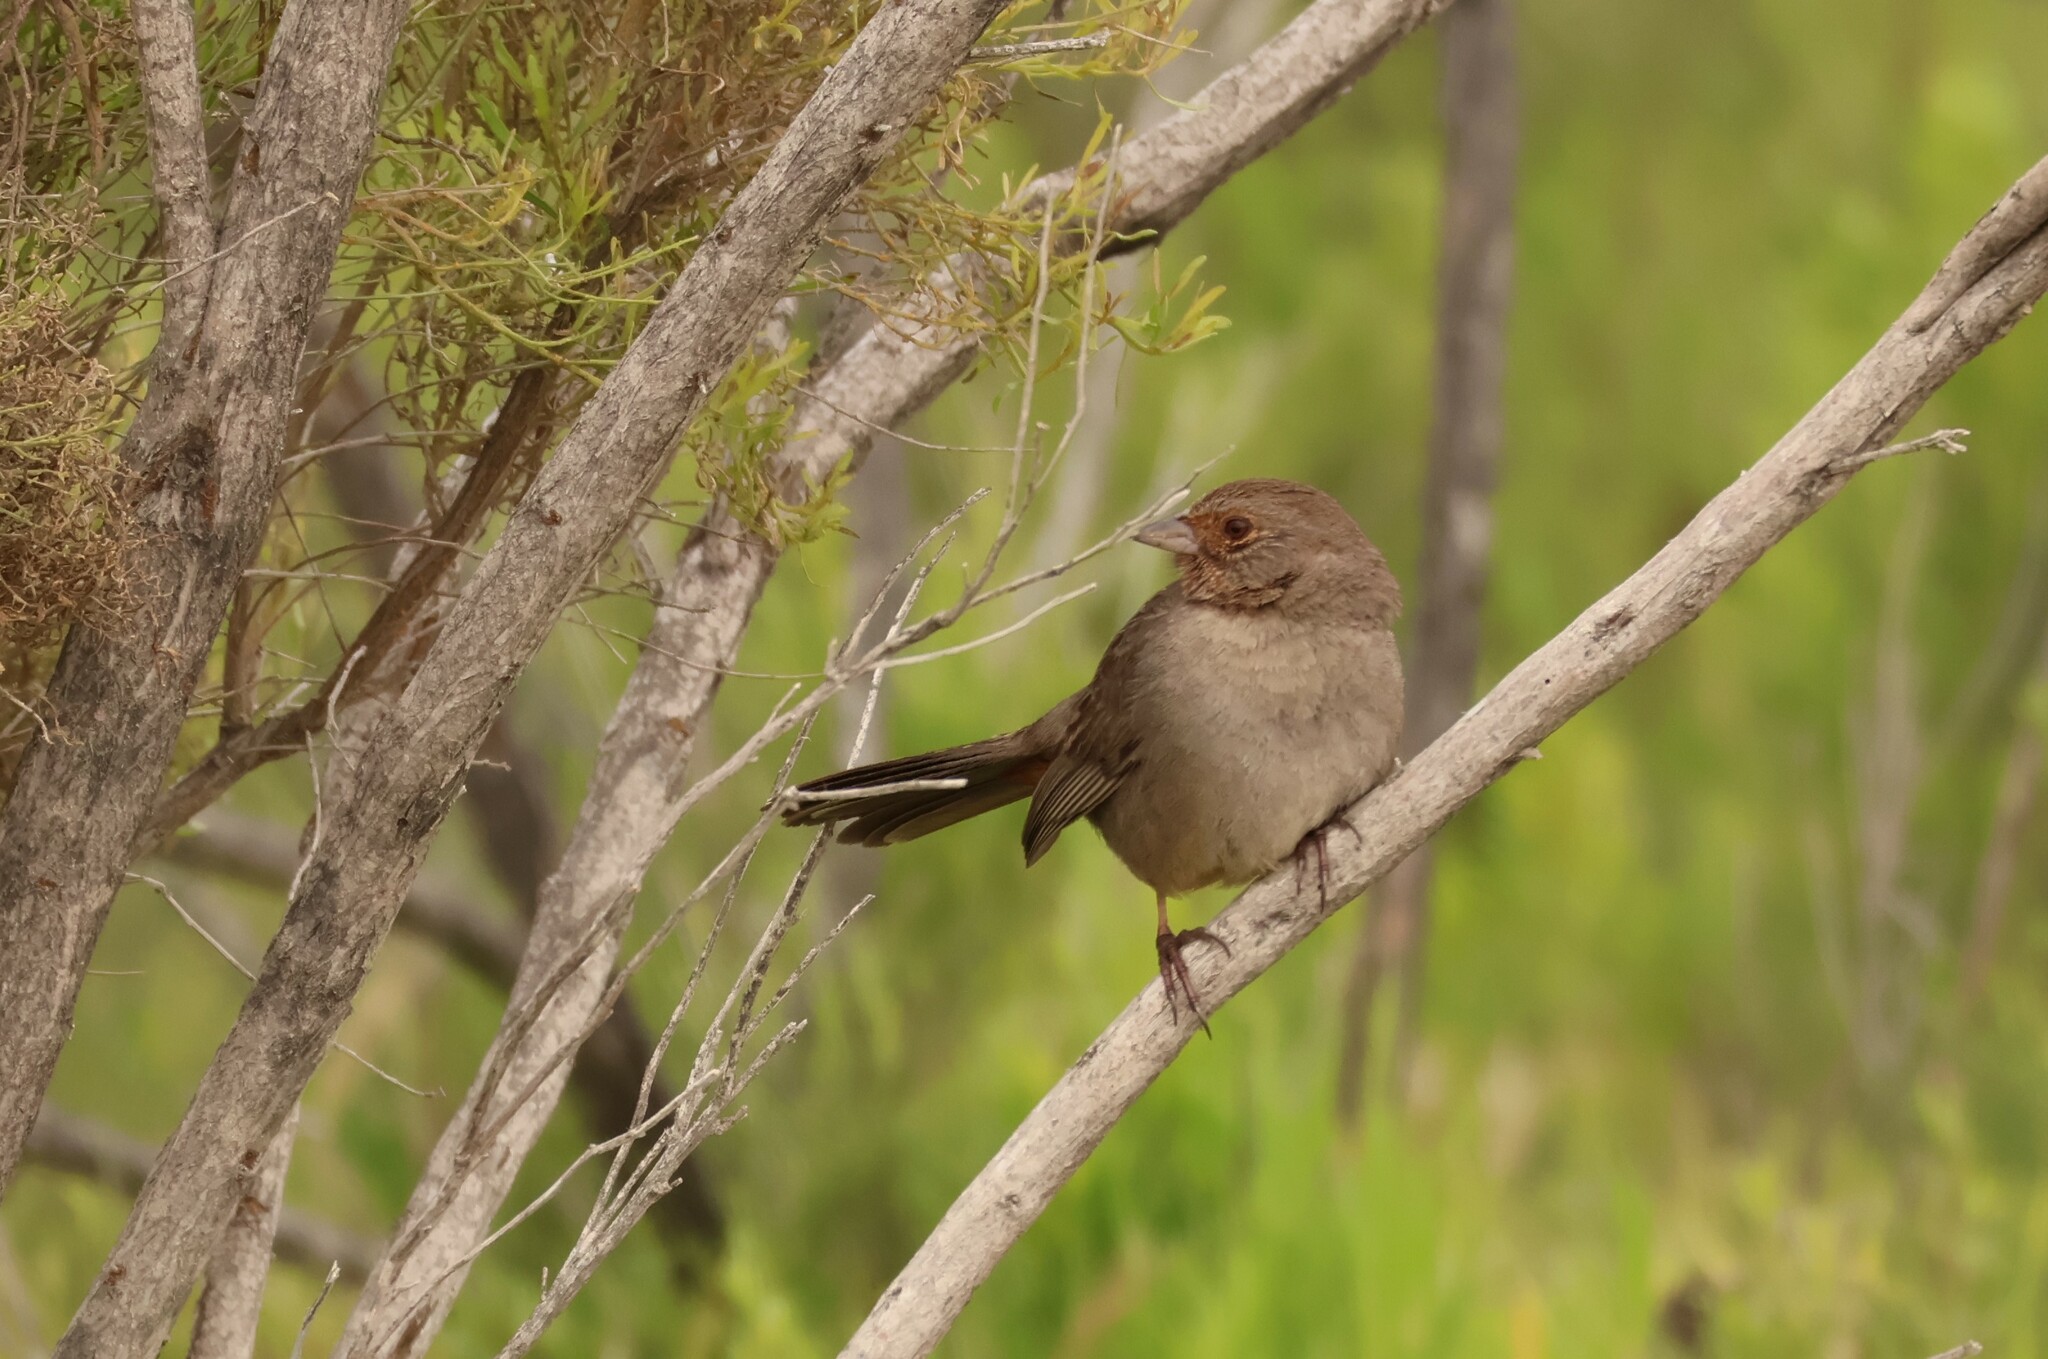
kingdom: Animalia
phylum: Chordata
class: Aves
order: Passeriformes
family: Passerellidae
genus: Melozone
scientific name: Melozone crissalis
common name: California towhee
